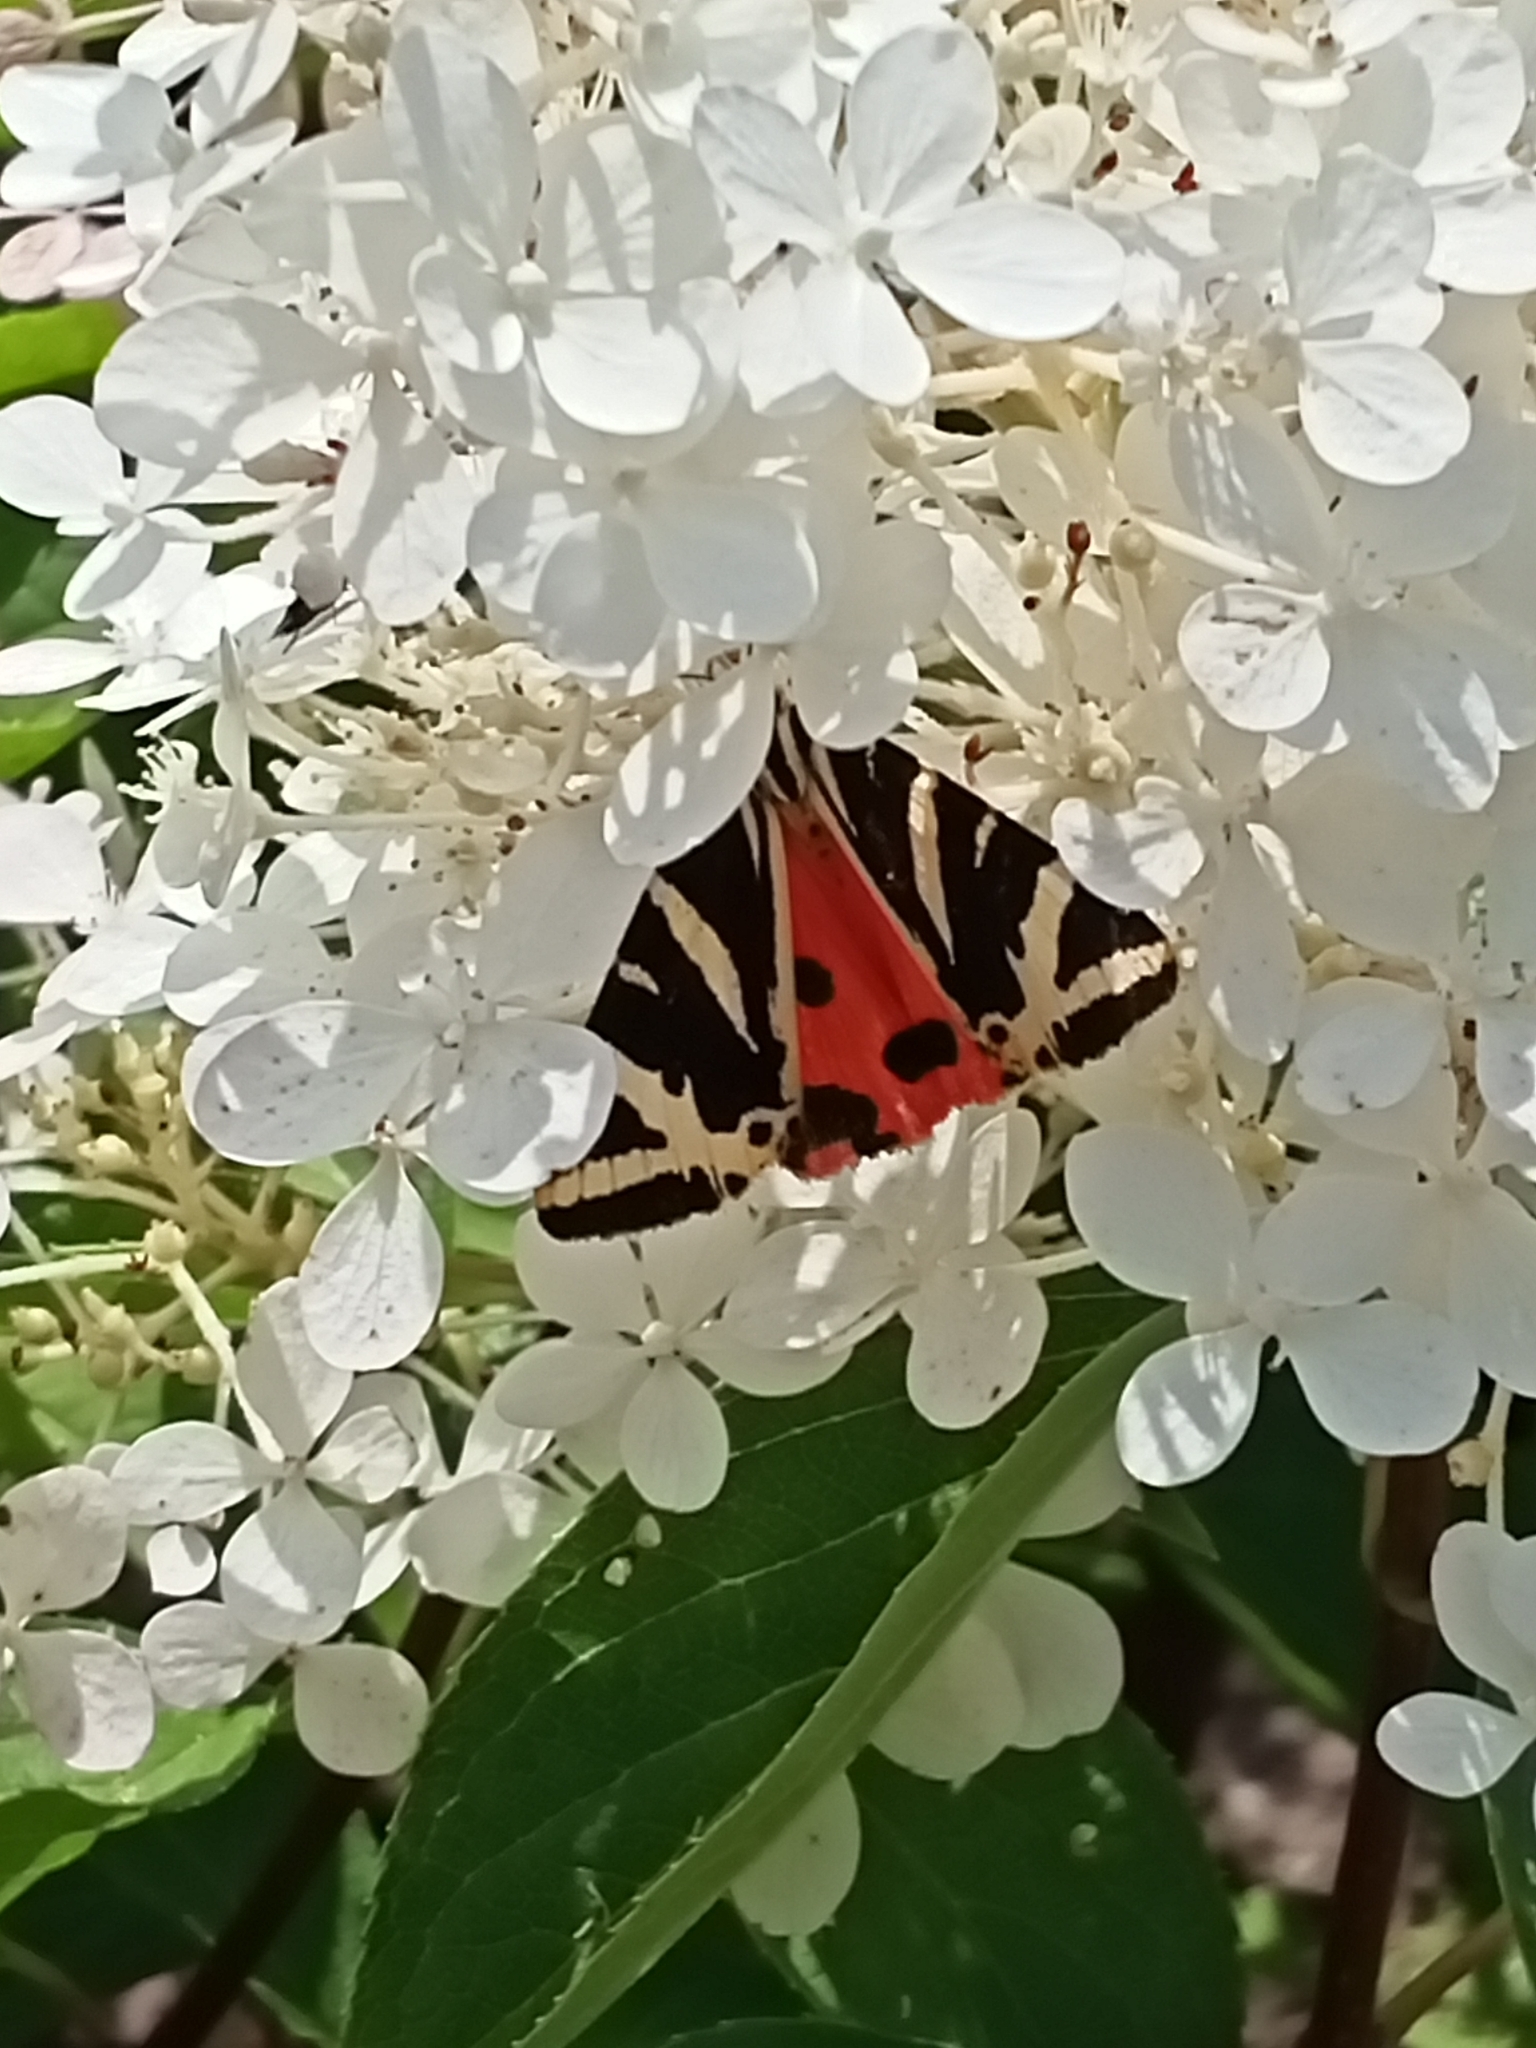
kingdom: Animalia
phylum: Arthropoda
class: Insecta
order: Lepidoptera
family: Erebidae
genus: Euplagia
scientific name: Euplagia quadripunctaria
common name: Jersey tiger
